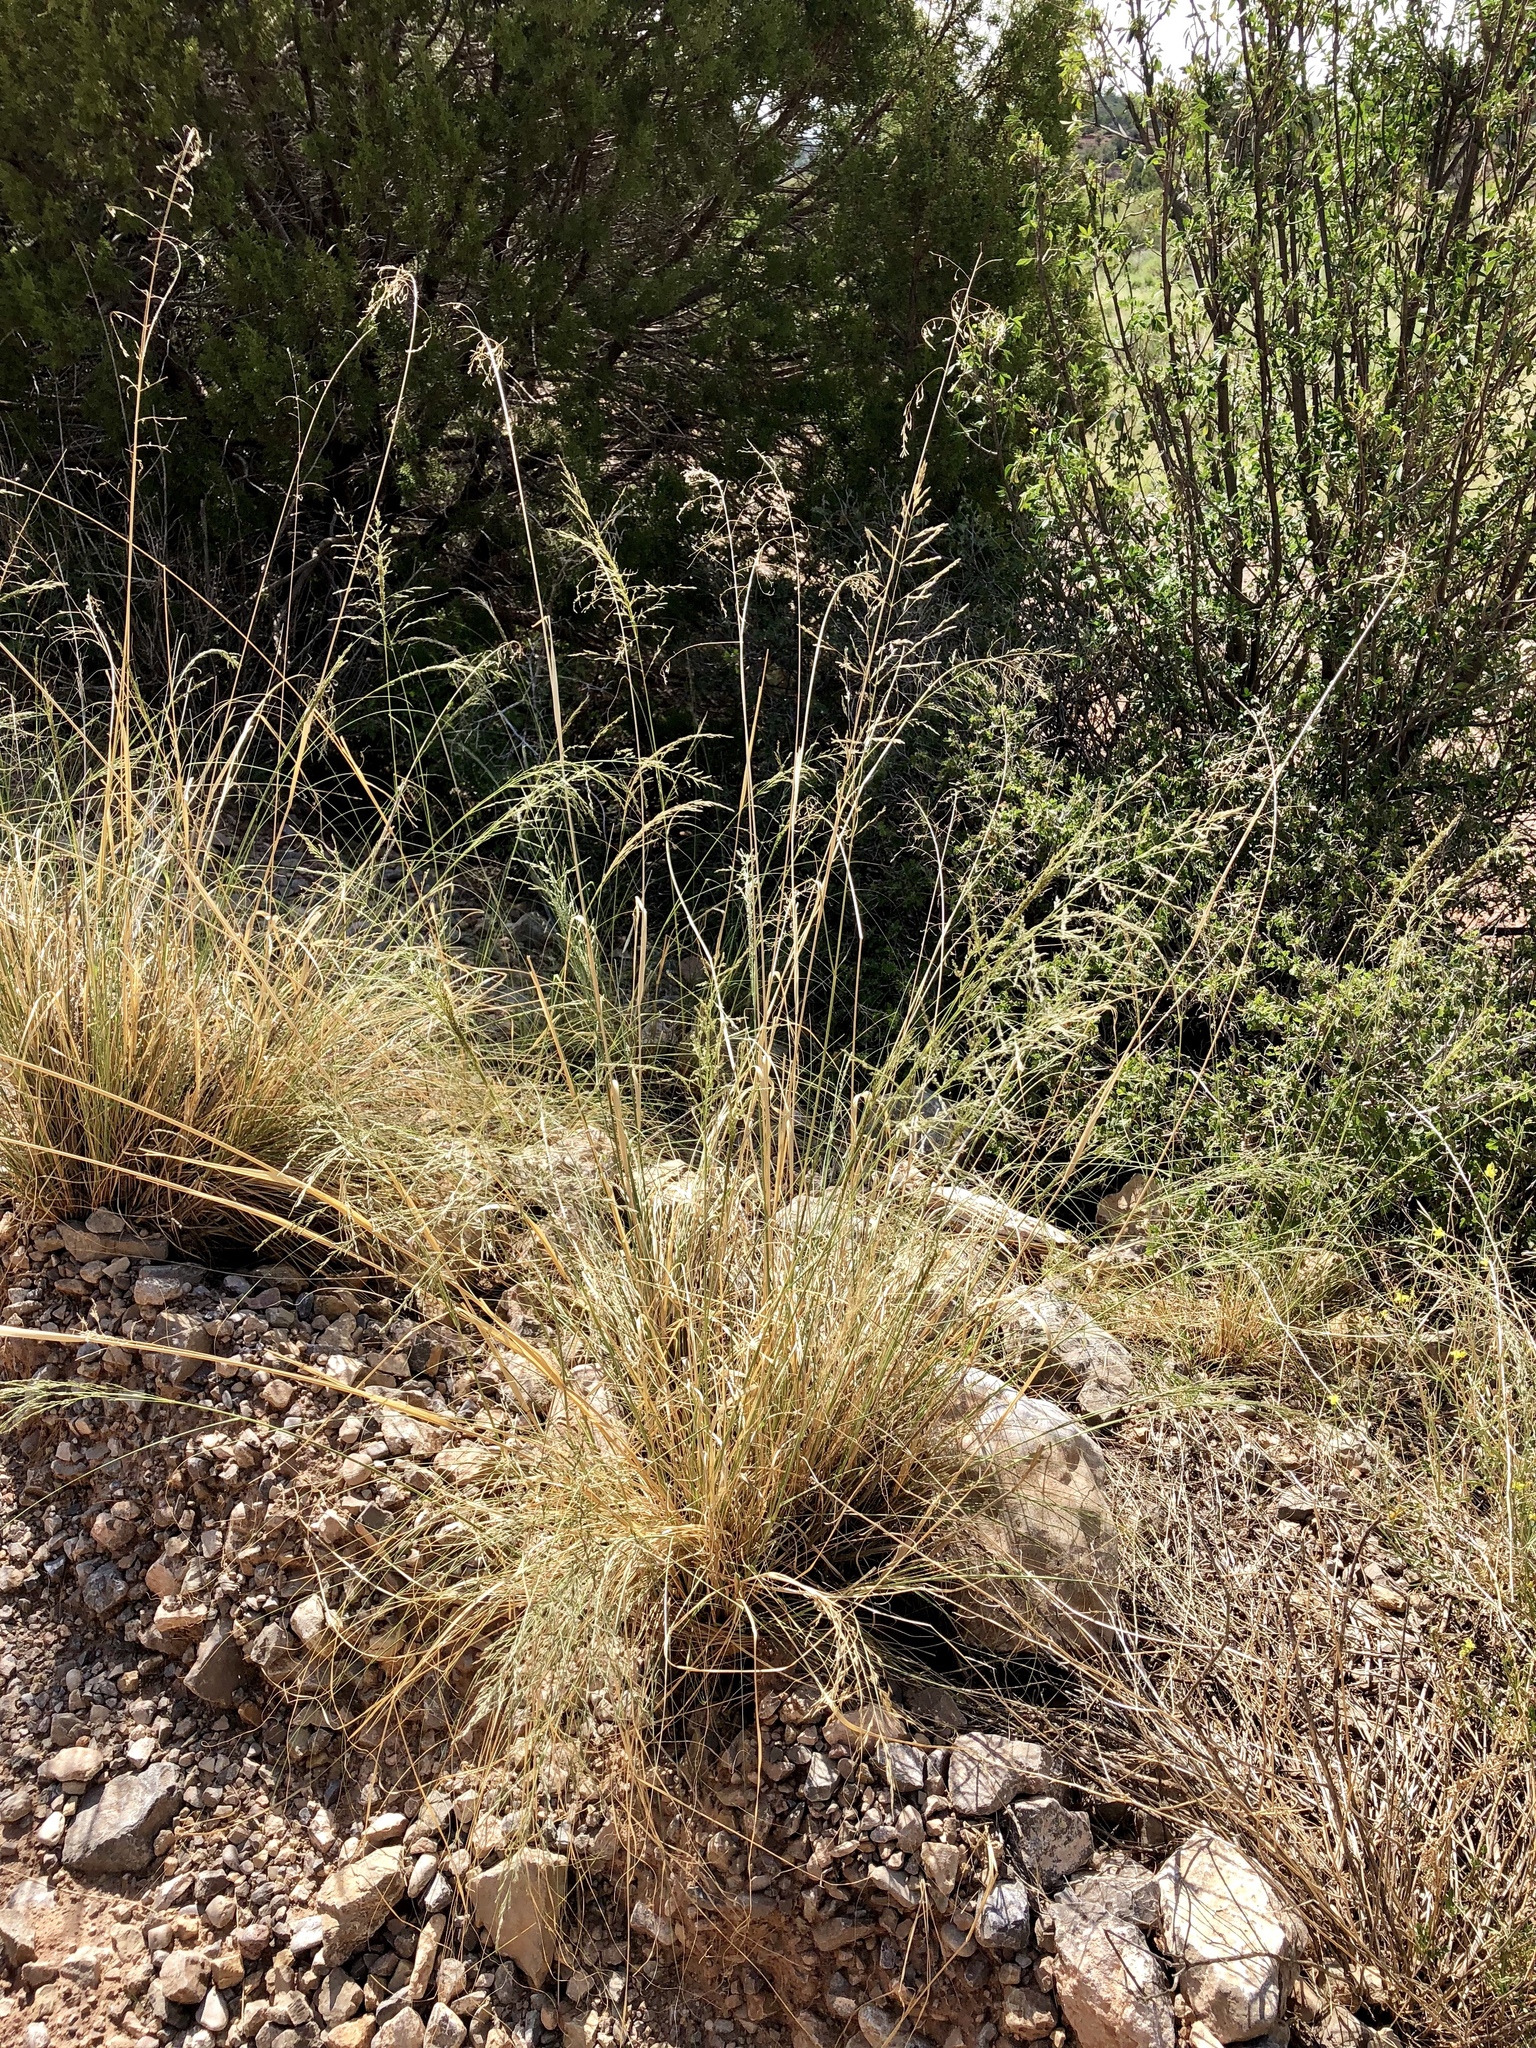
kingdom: Plantae
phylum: Tracheophyta
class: Liliopsida
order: Poales
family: Poaceae
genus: Eragrostis
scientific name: Eragrostis curvula
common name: African love-grass
